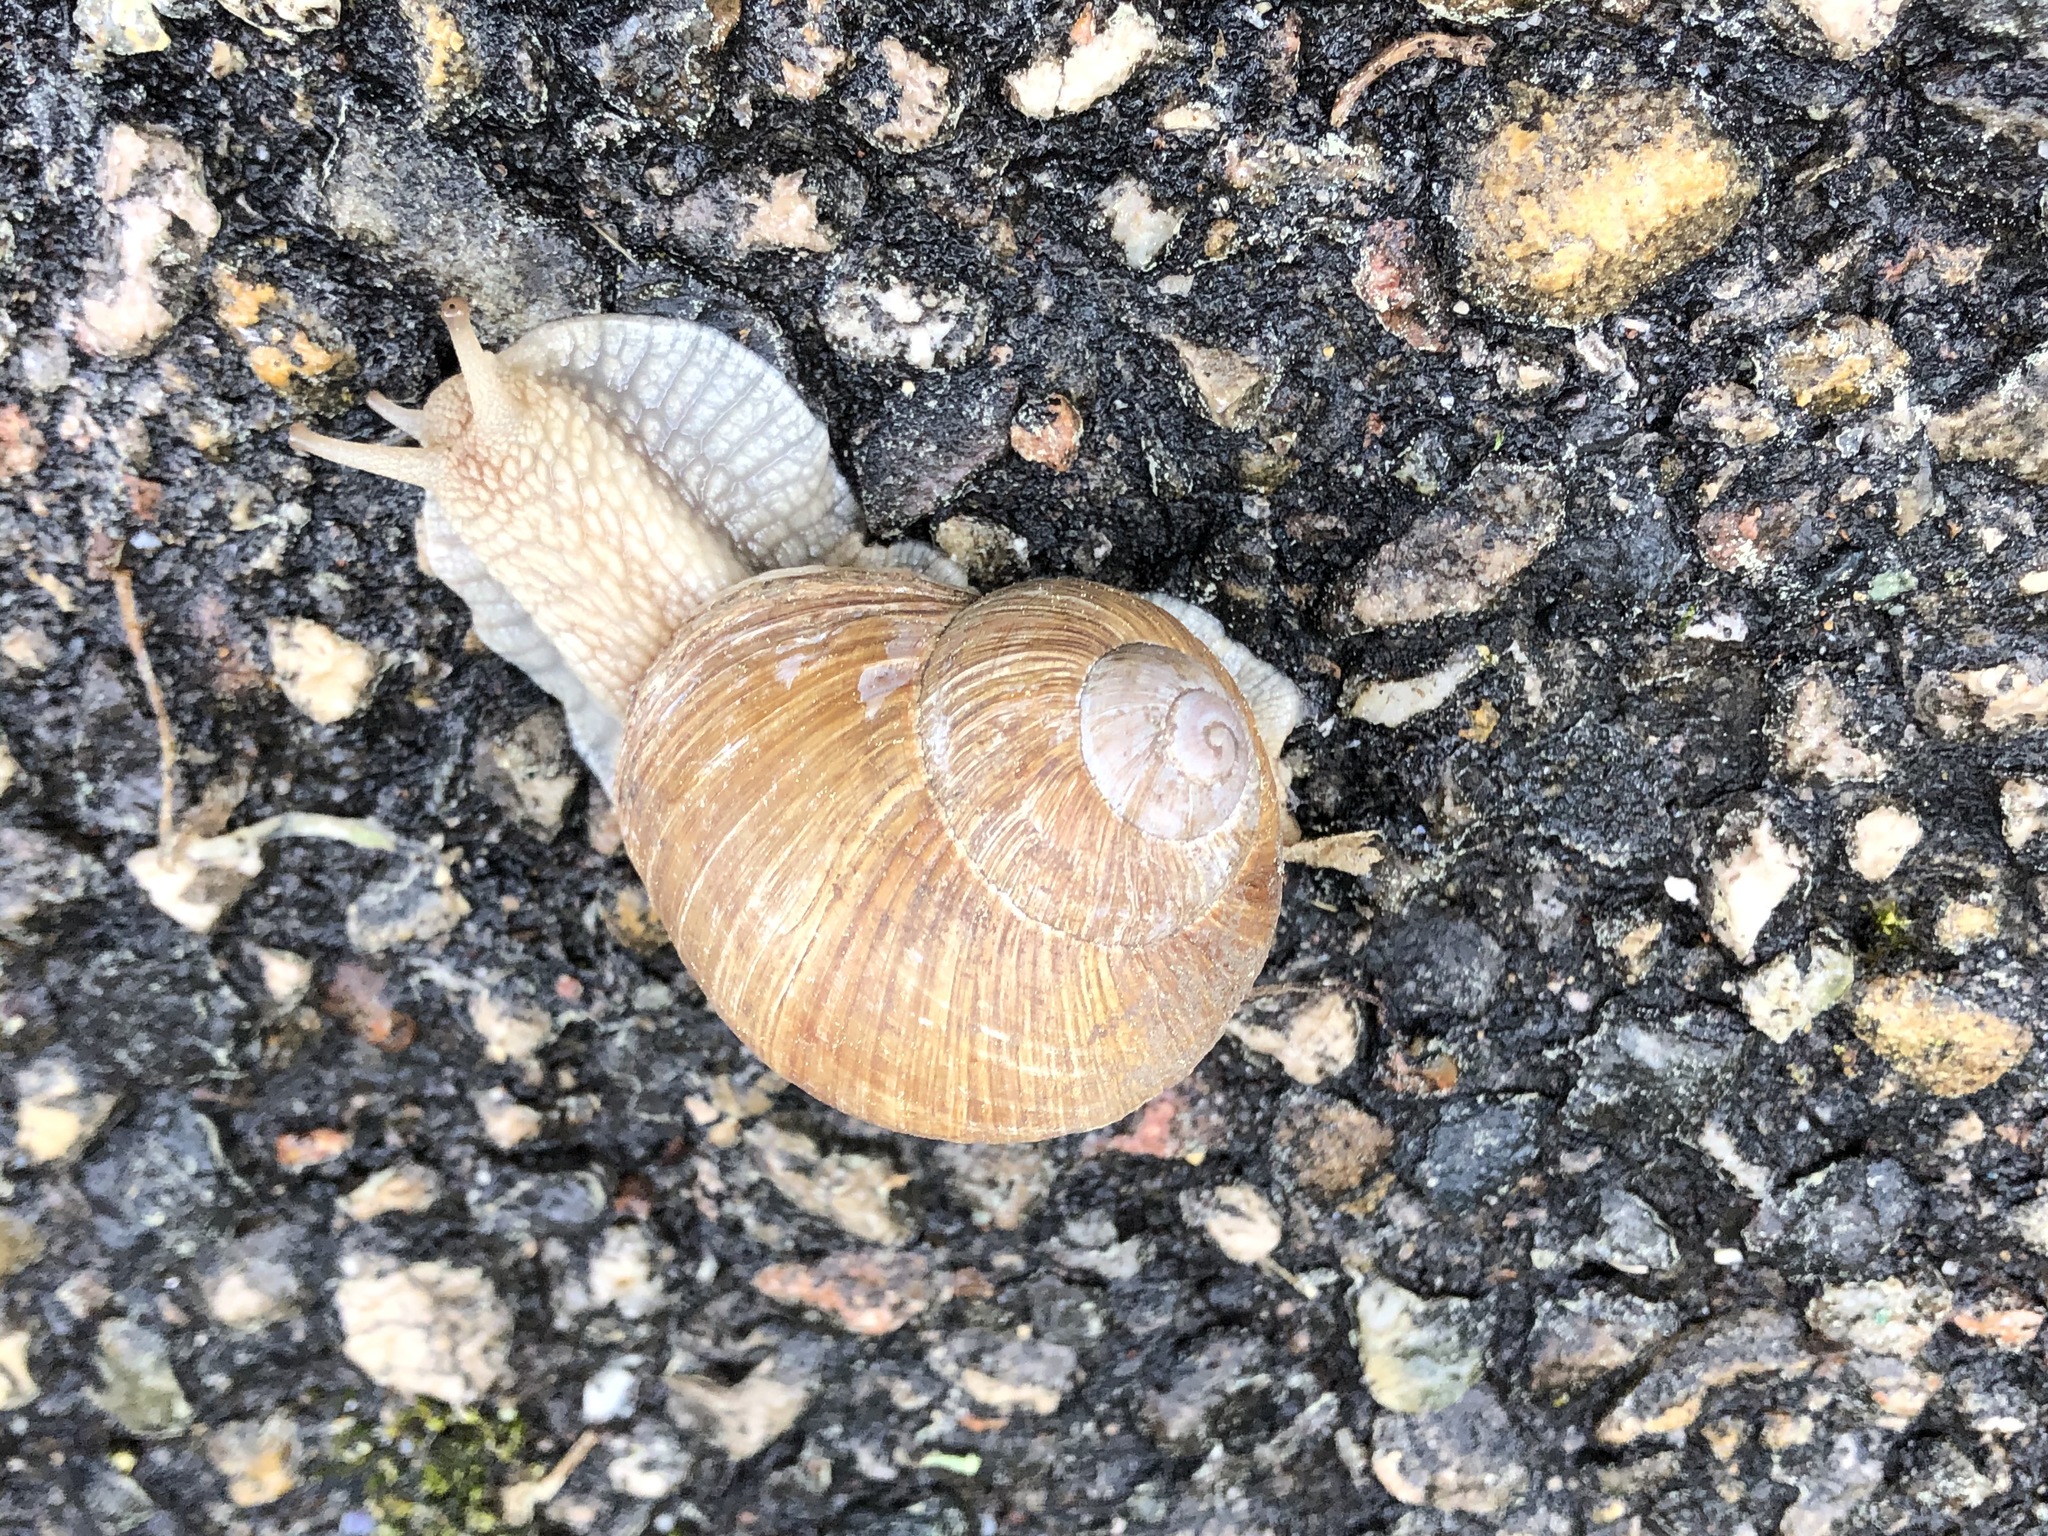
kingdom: Animalia
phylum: Mollusca
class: Gastropoda
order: Stylommatophora
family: Helicidae
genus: Helix
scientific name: Helix pomatia
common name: Roman snail
